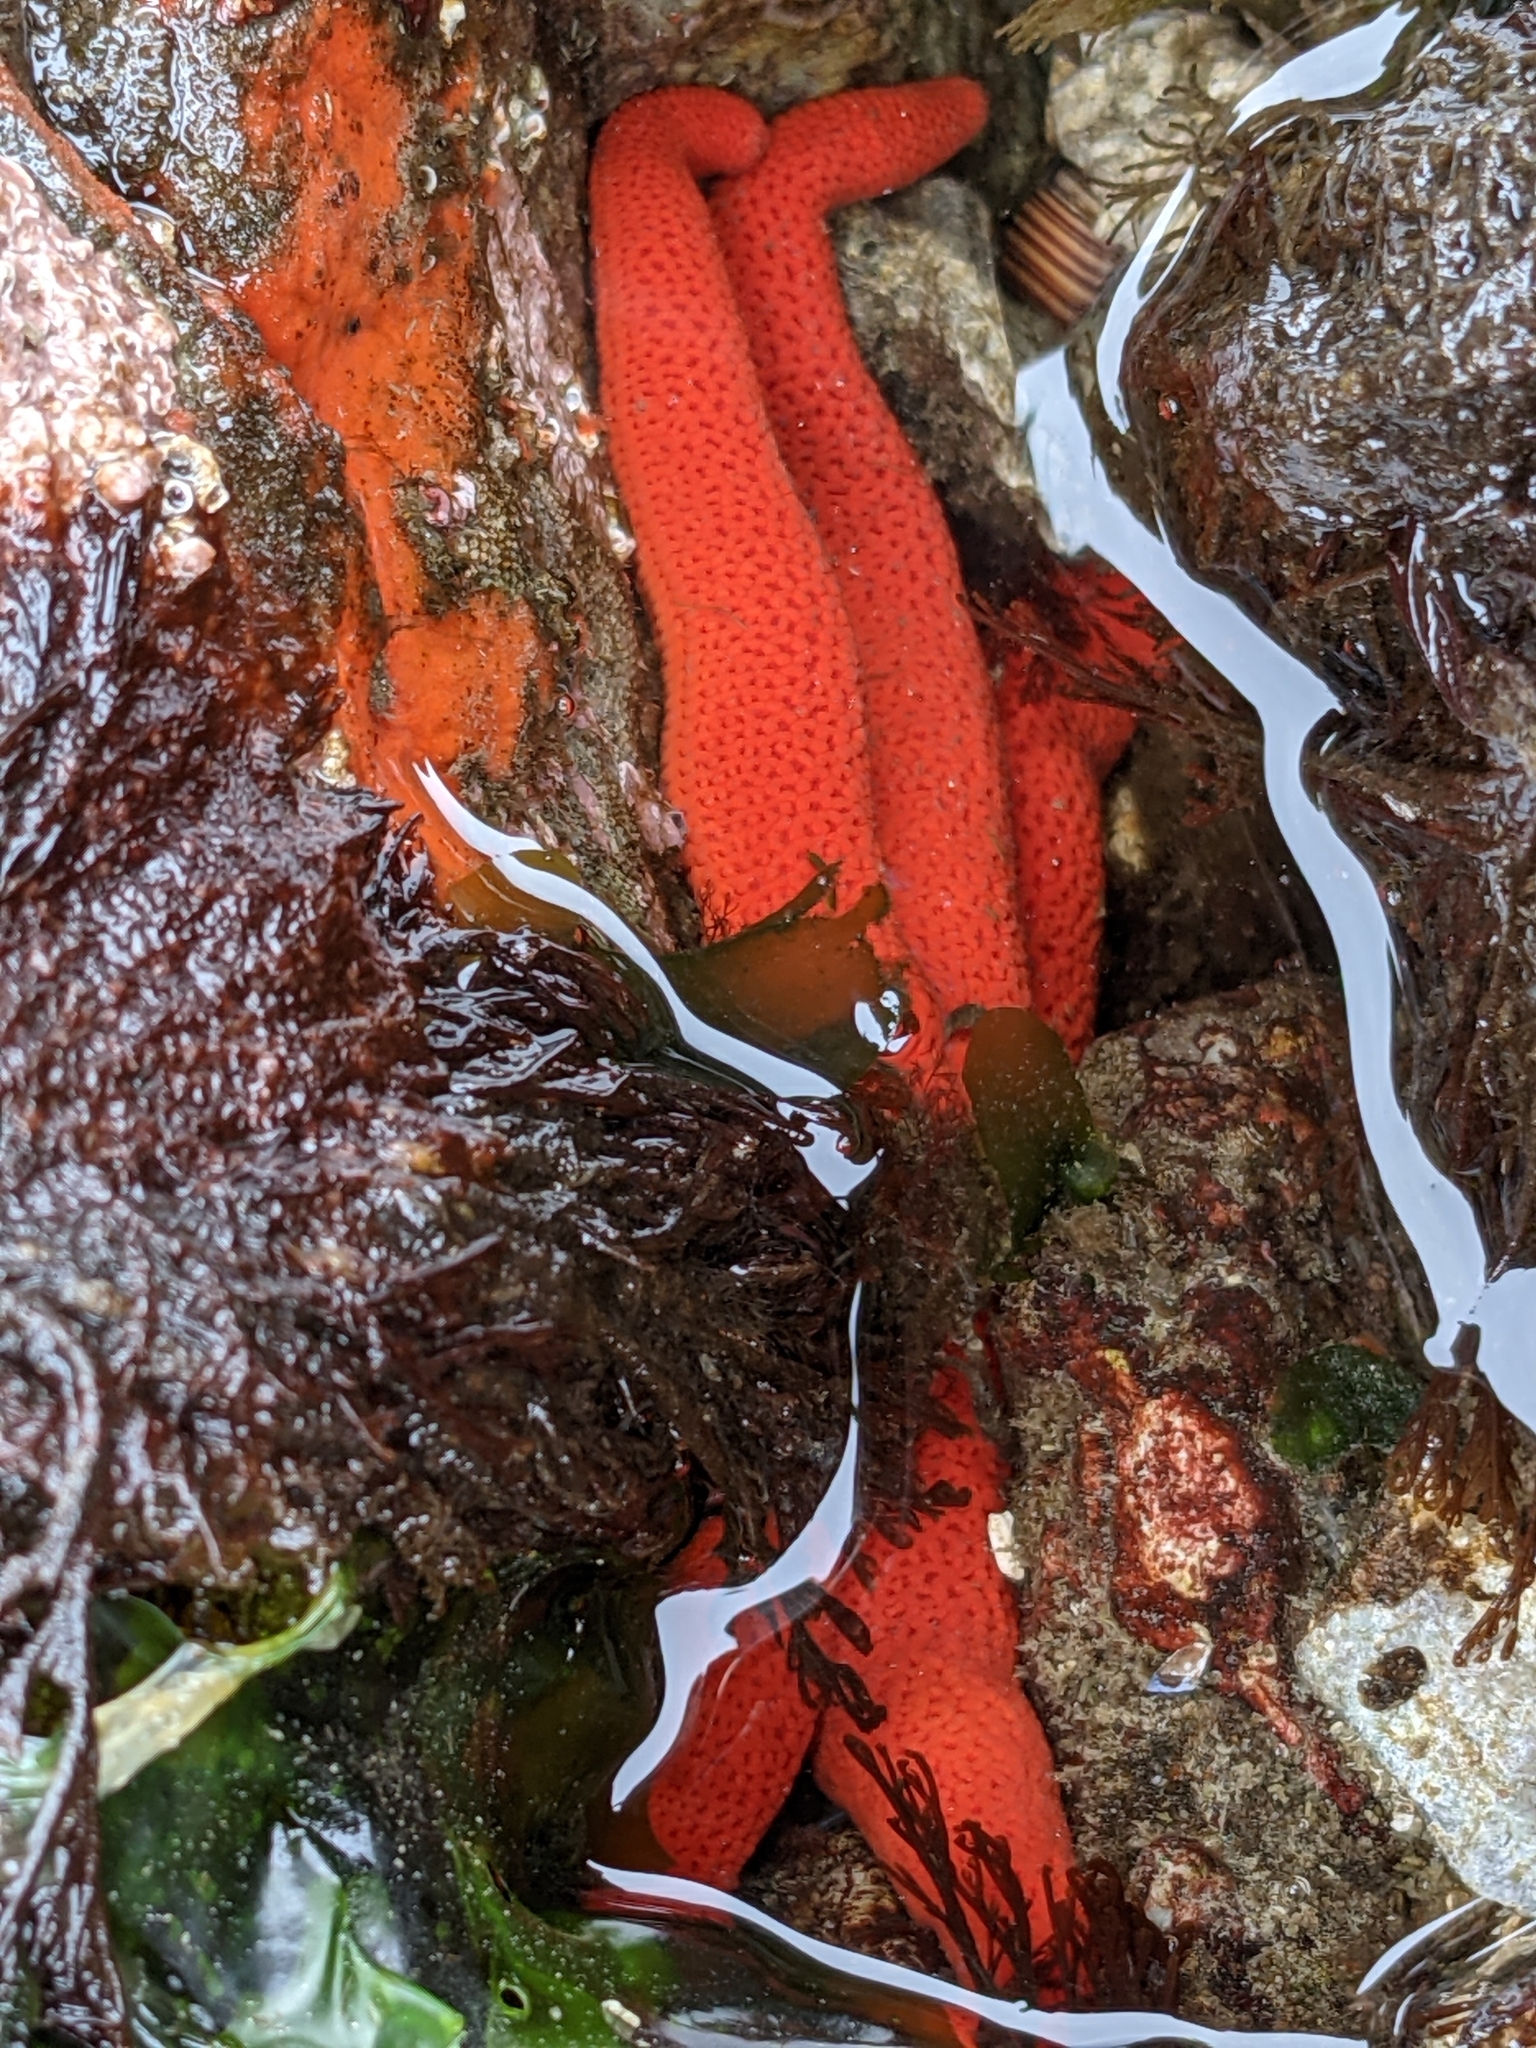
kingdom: Animalia
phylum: Echinodermata
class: Asteroidea
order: Spinulosida
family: Echinasteridae
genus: Henricia
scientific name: Henricia leviuscula
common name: Pacific blood star
